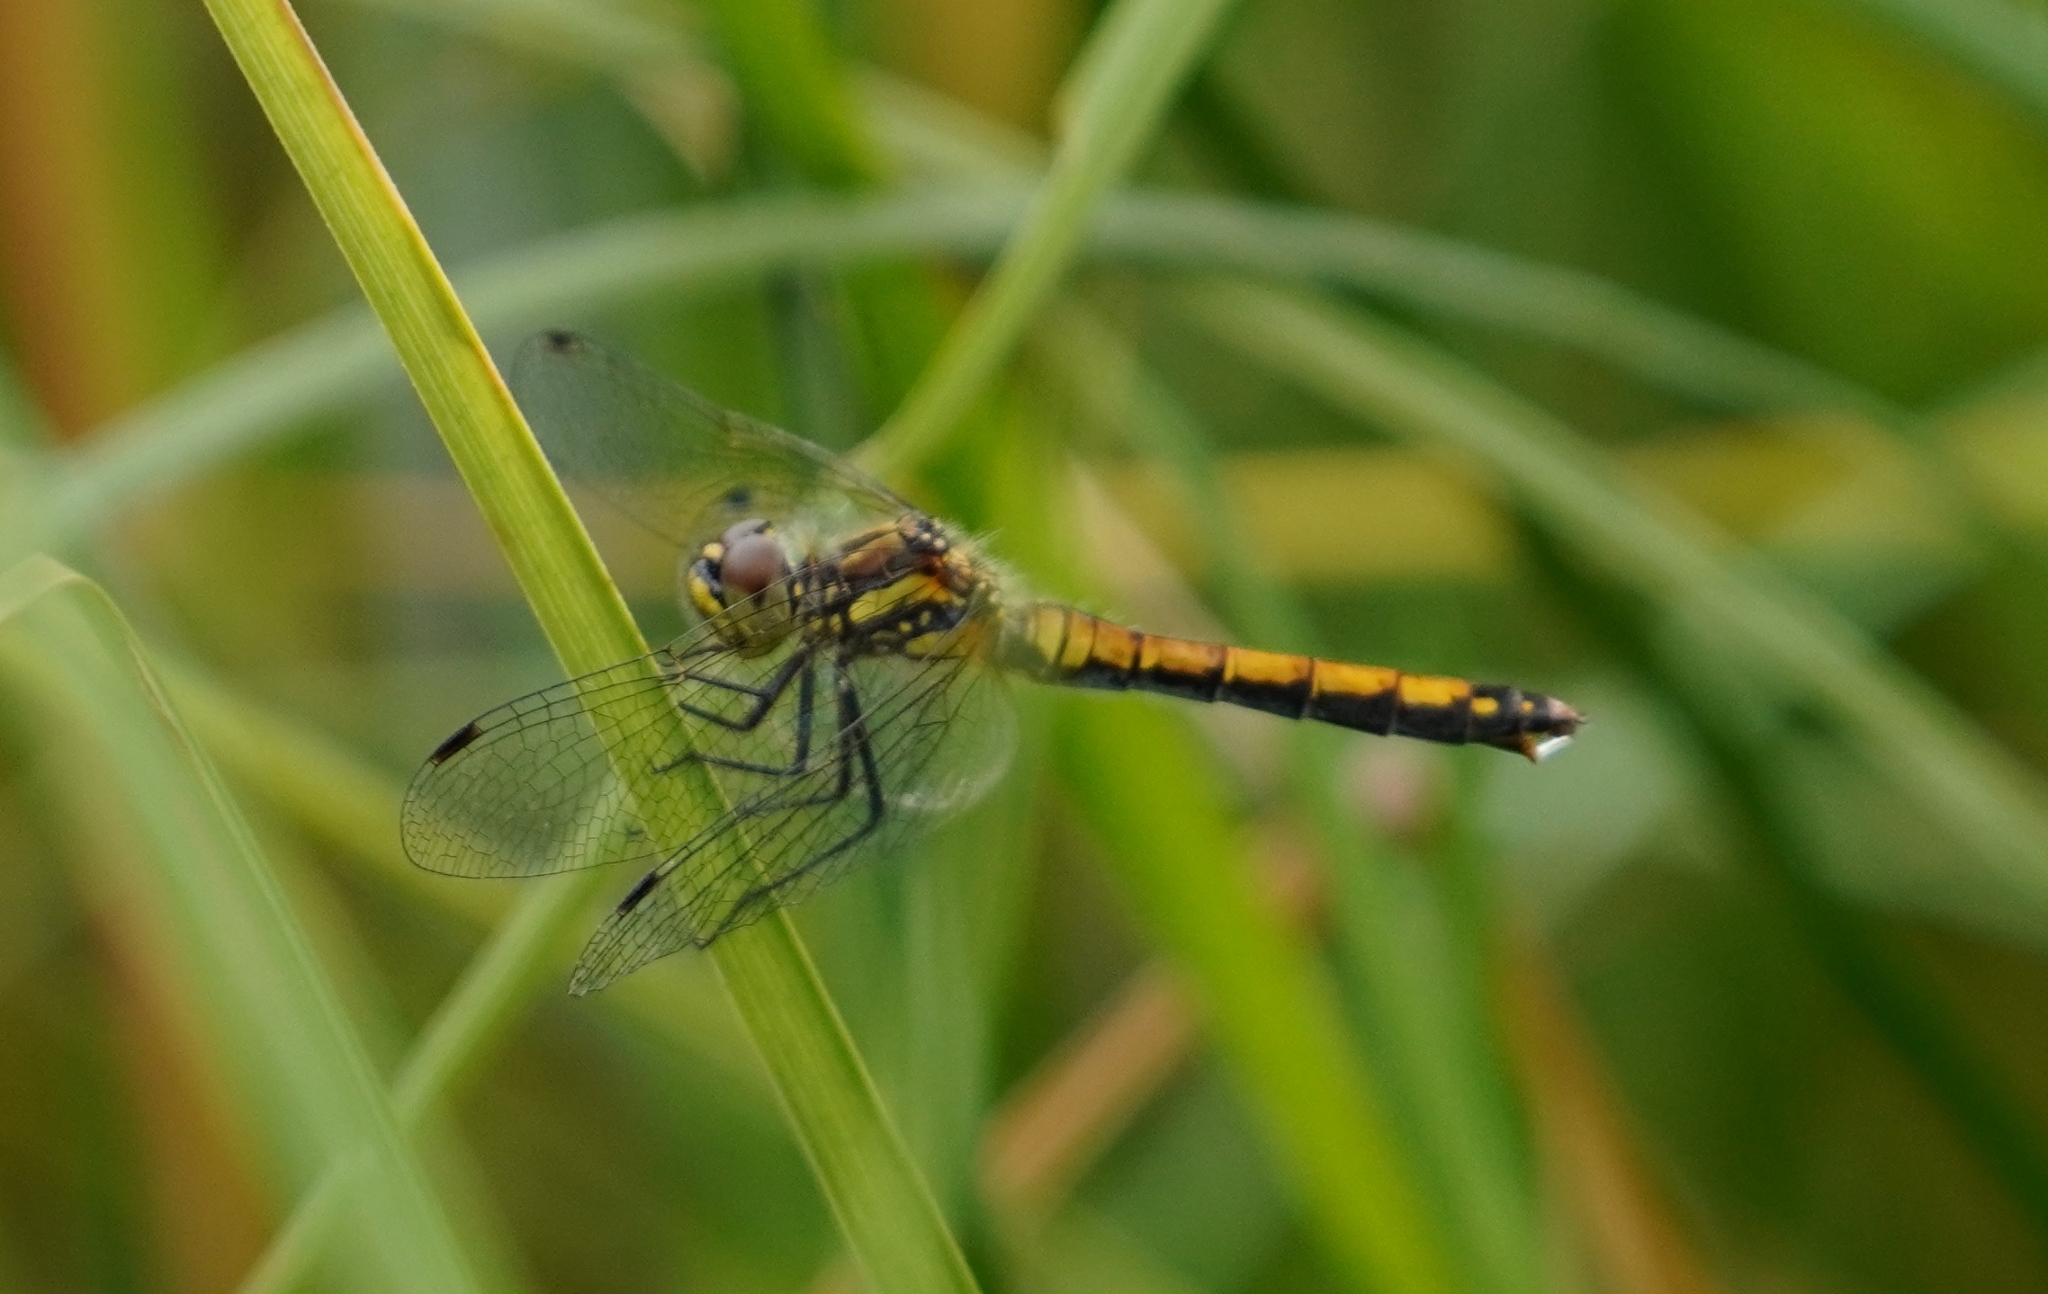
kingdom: Animalia
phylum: Arthropoda
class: Insecta
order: Odonata
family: Libellulidae
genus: Sympetrum
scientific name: Sympetrum danae
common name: Black darter
